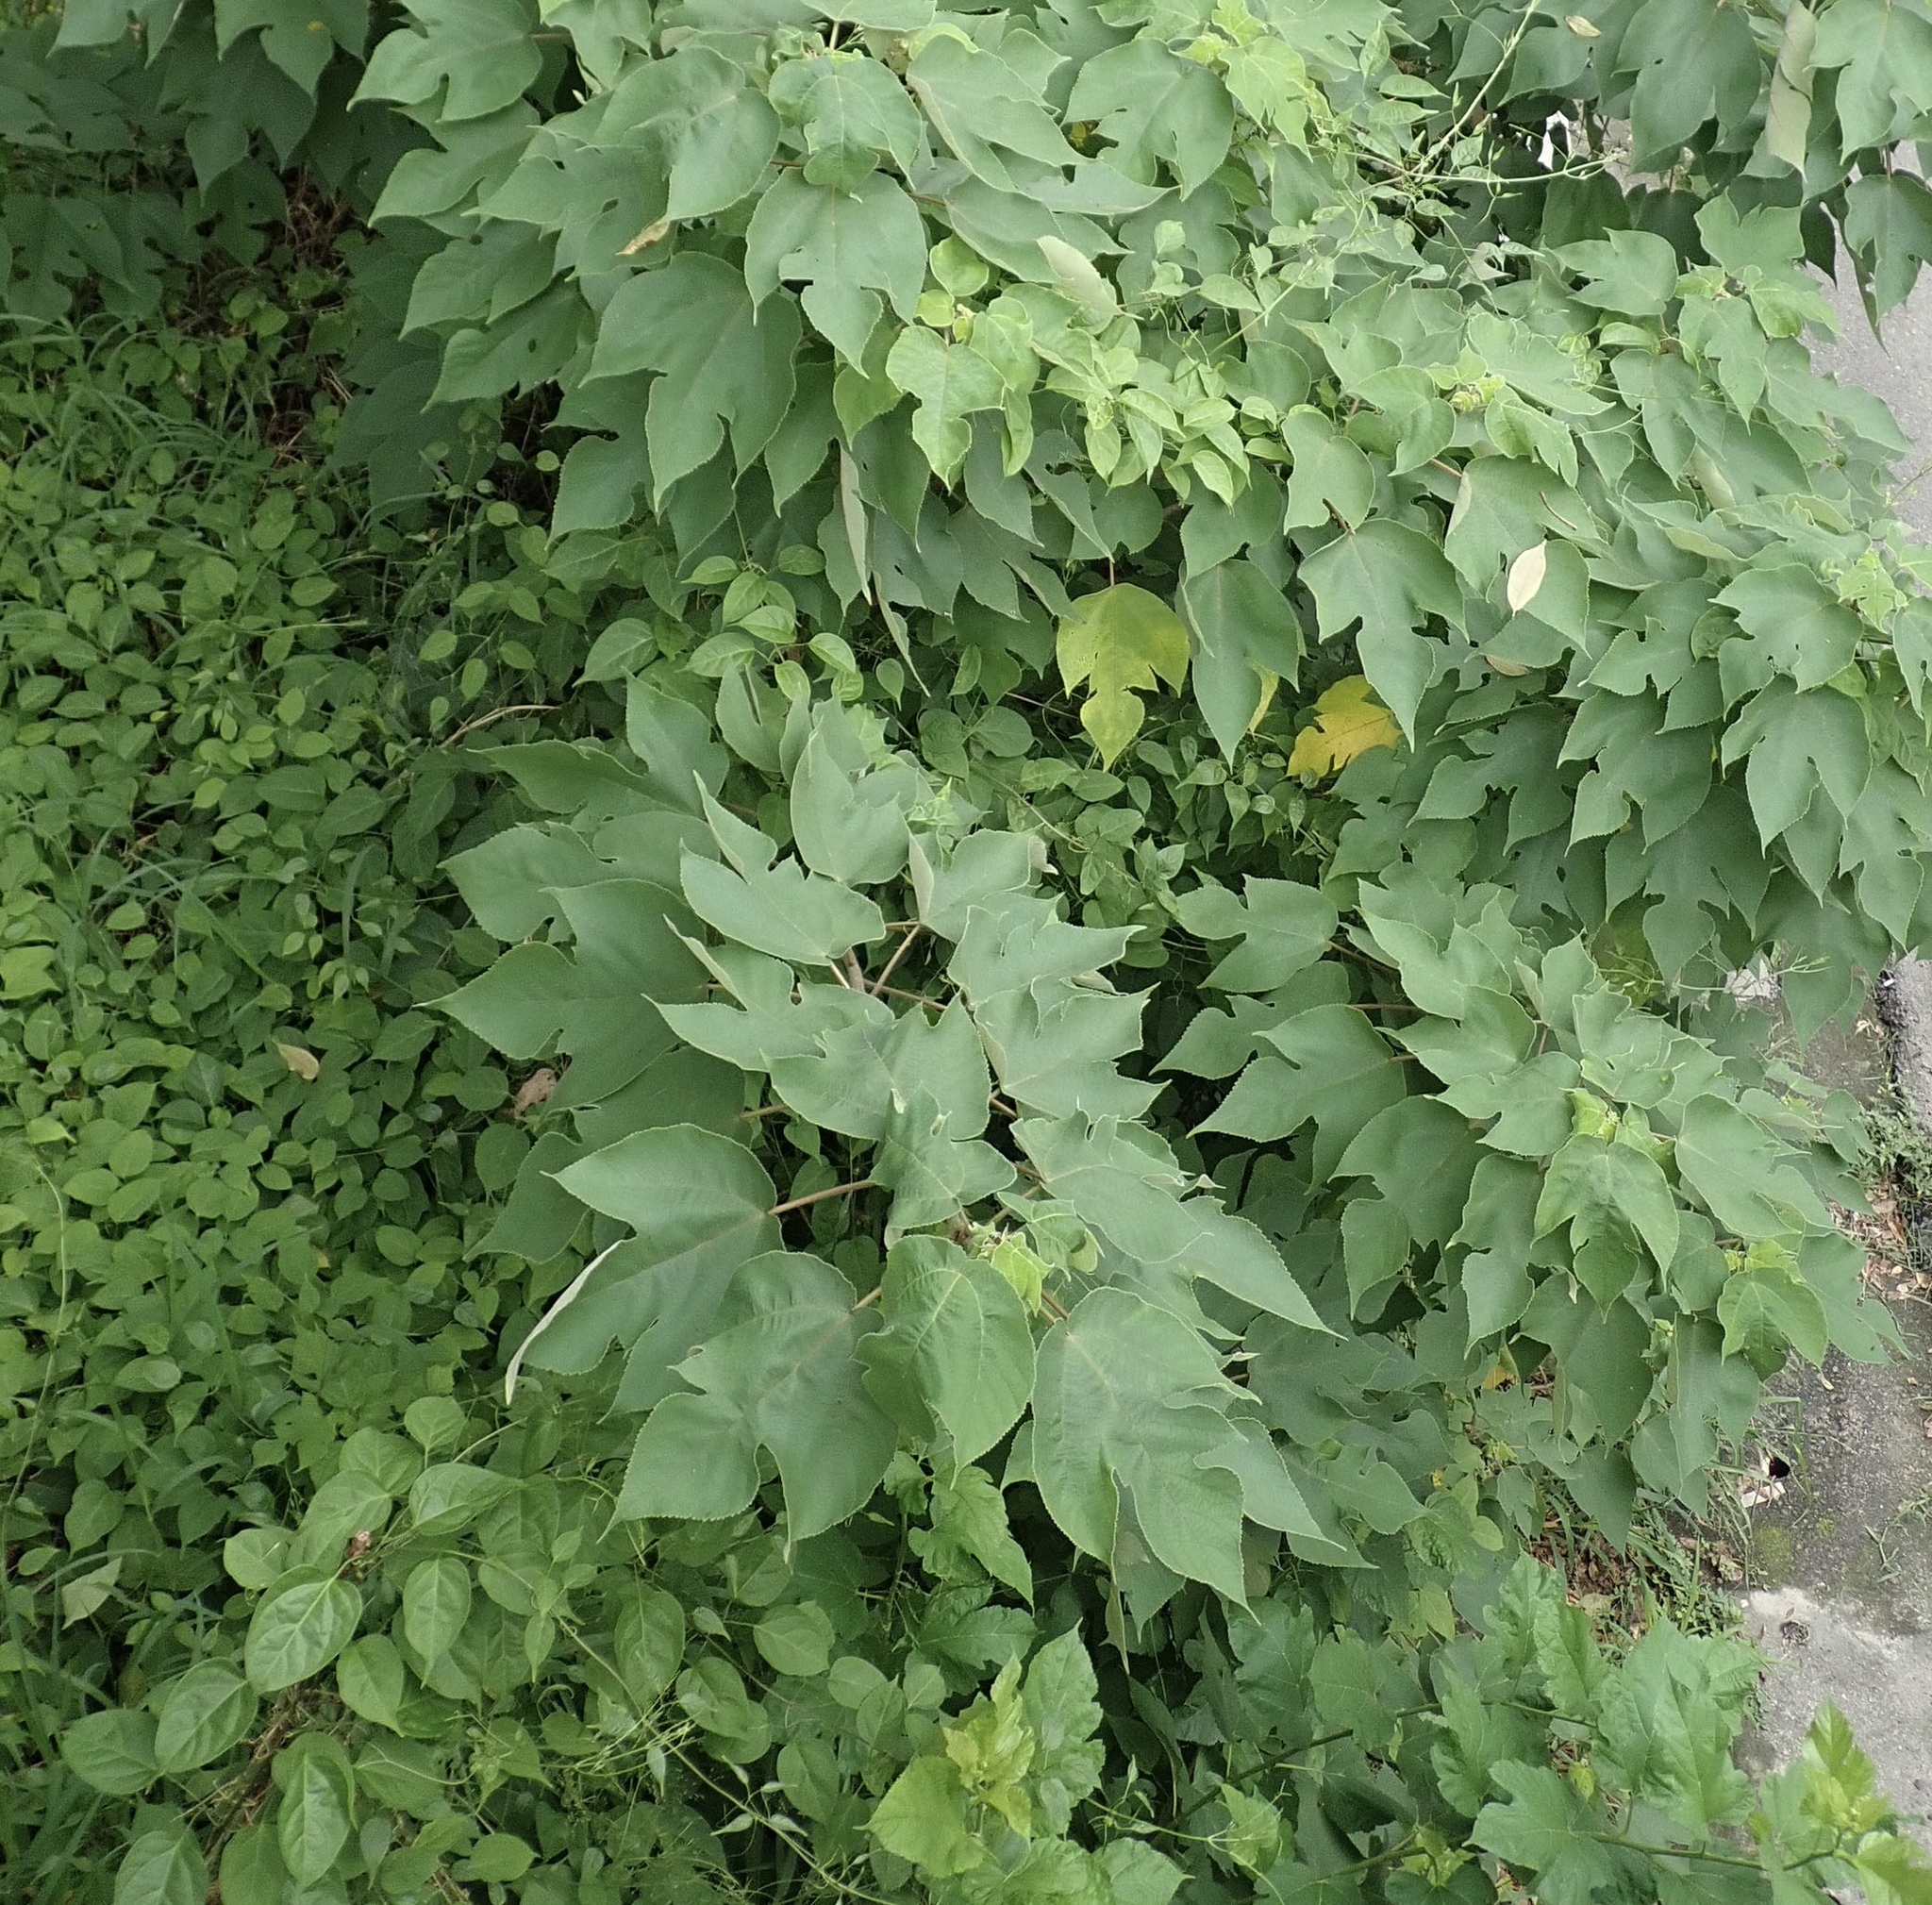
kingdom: Plantae
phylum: Tracheophyta
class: Magnoliopsida
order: Rosales
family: Moraceae
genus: Broussonetia
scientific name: Broussonetia papyrifera
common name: Paper mulberry
